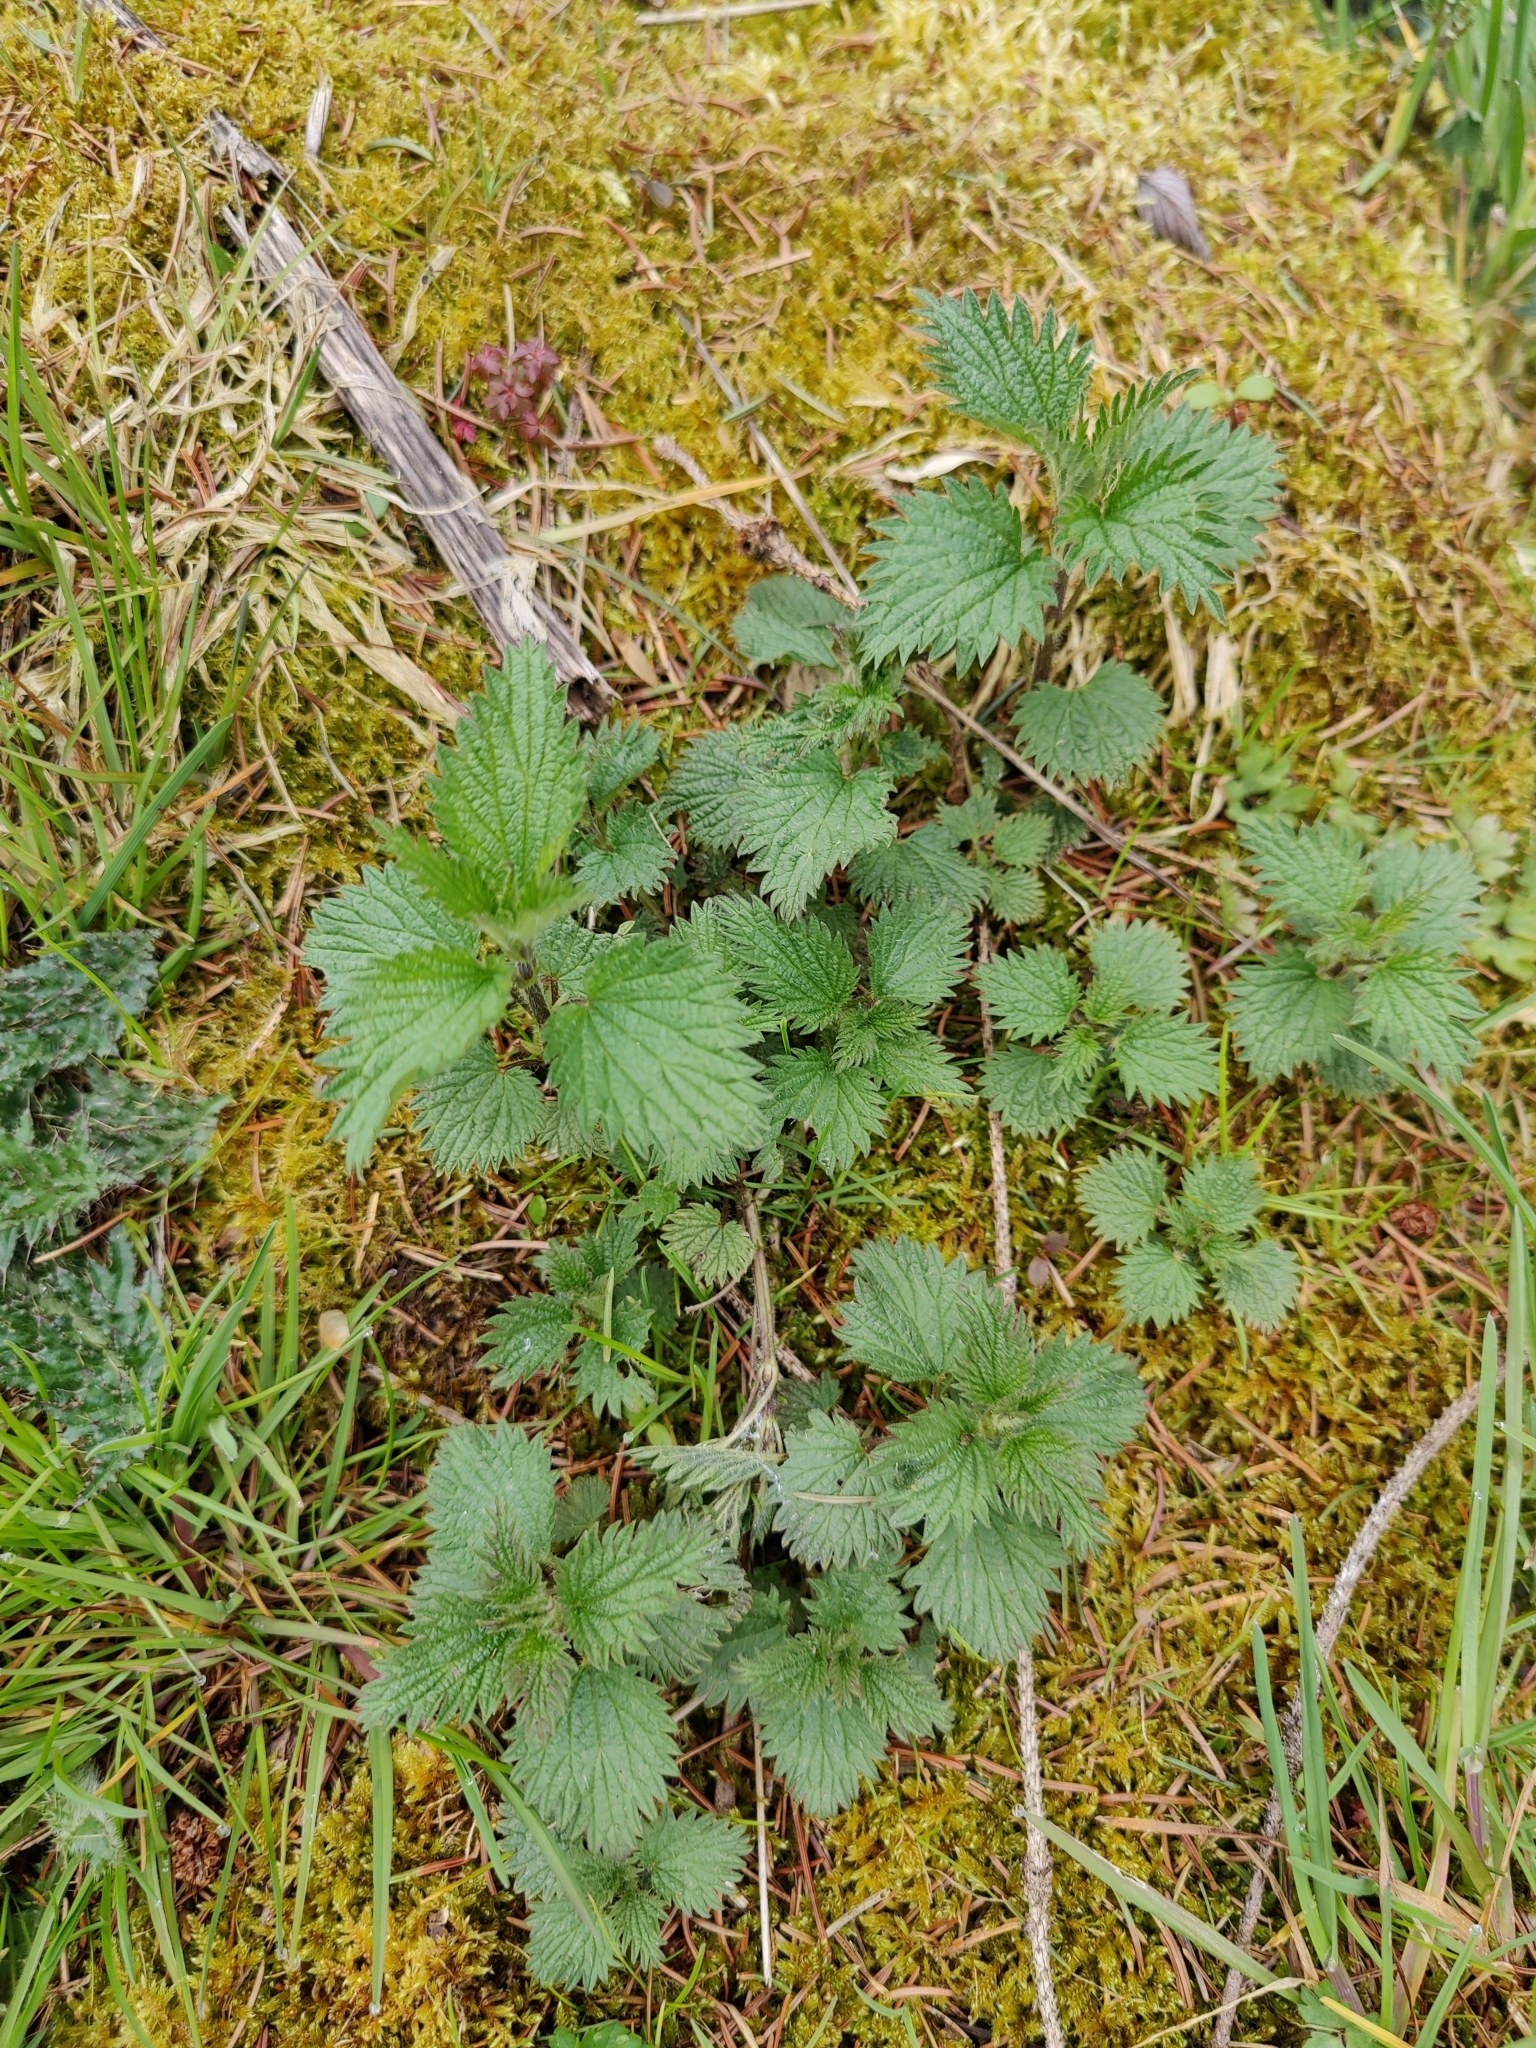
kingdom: Plantae
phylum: Tracheophyta
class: Magnoliopsida
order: Rosales
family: Urticaceae
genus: Urtica
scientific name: Urtica dioica
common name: Common nettle
